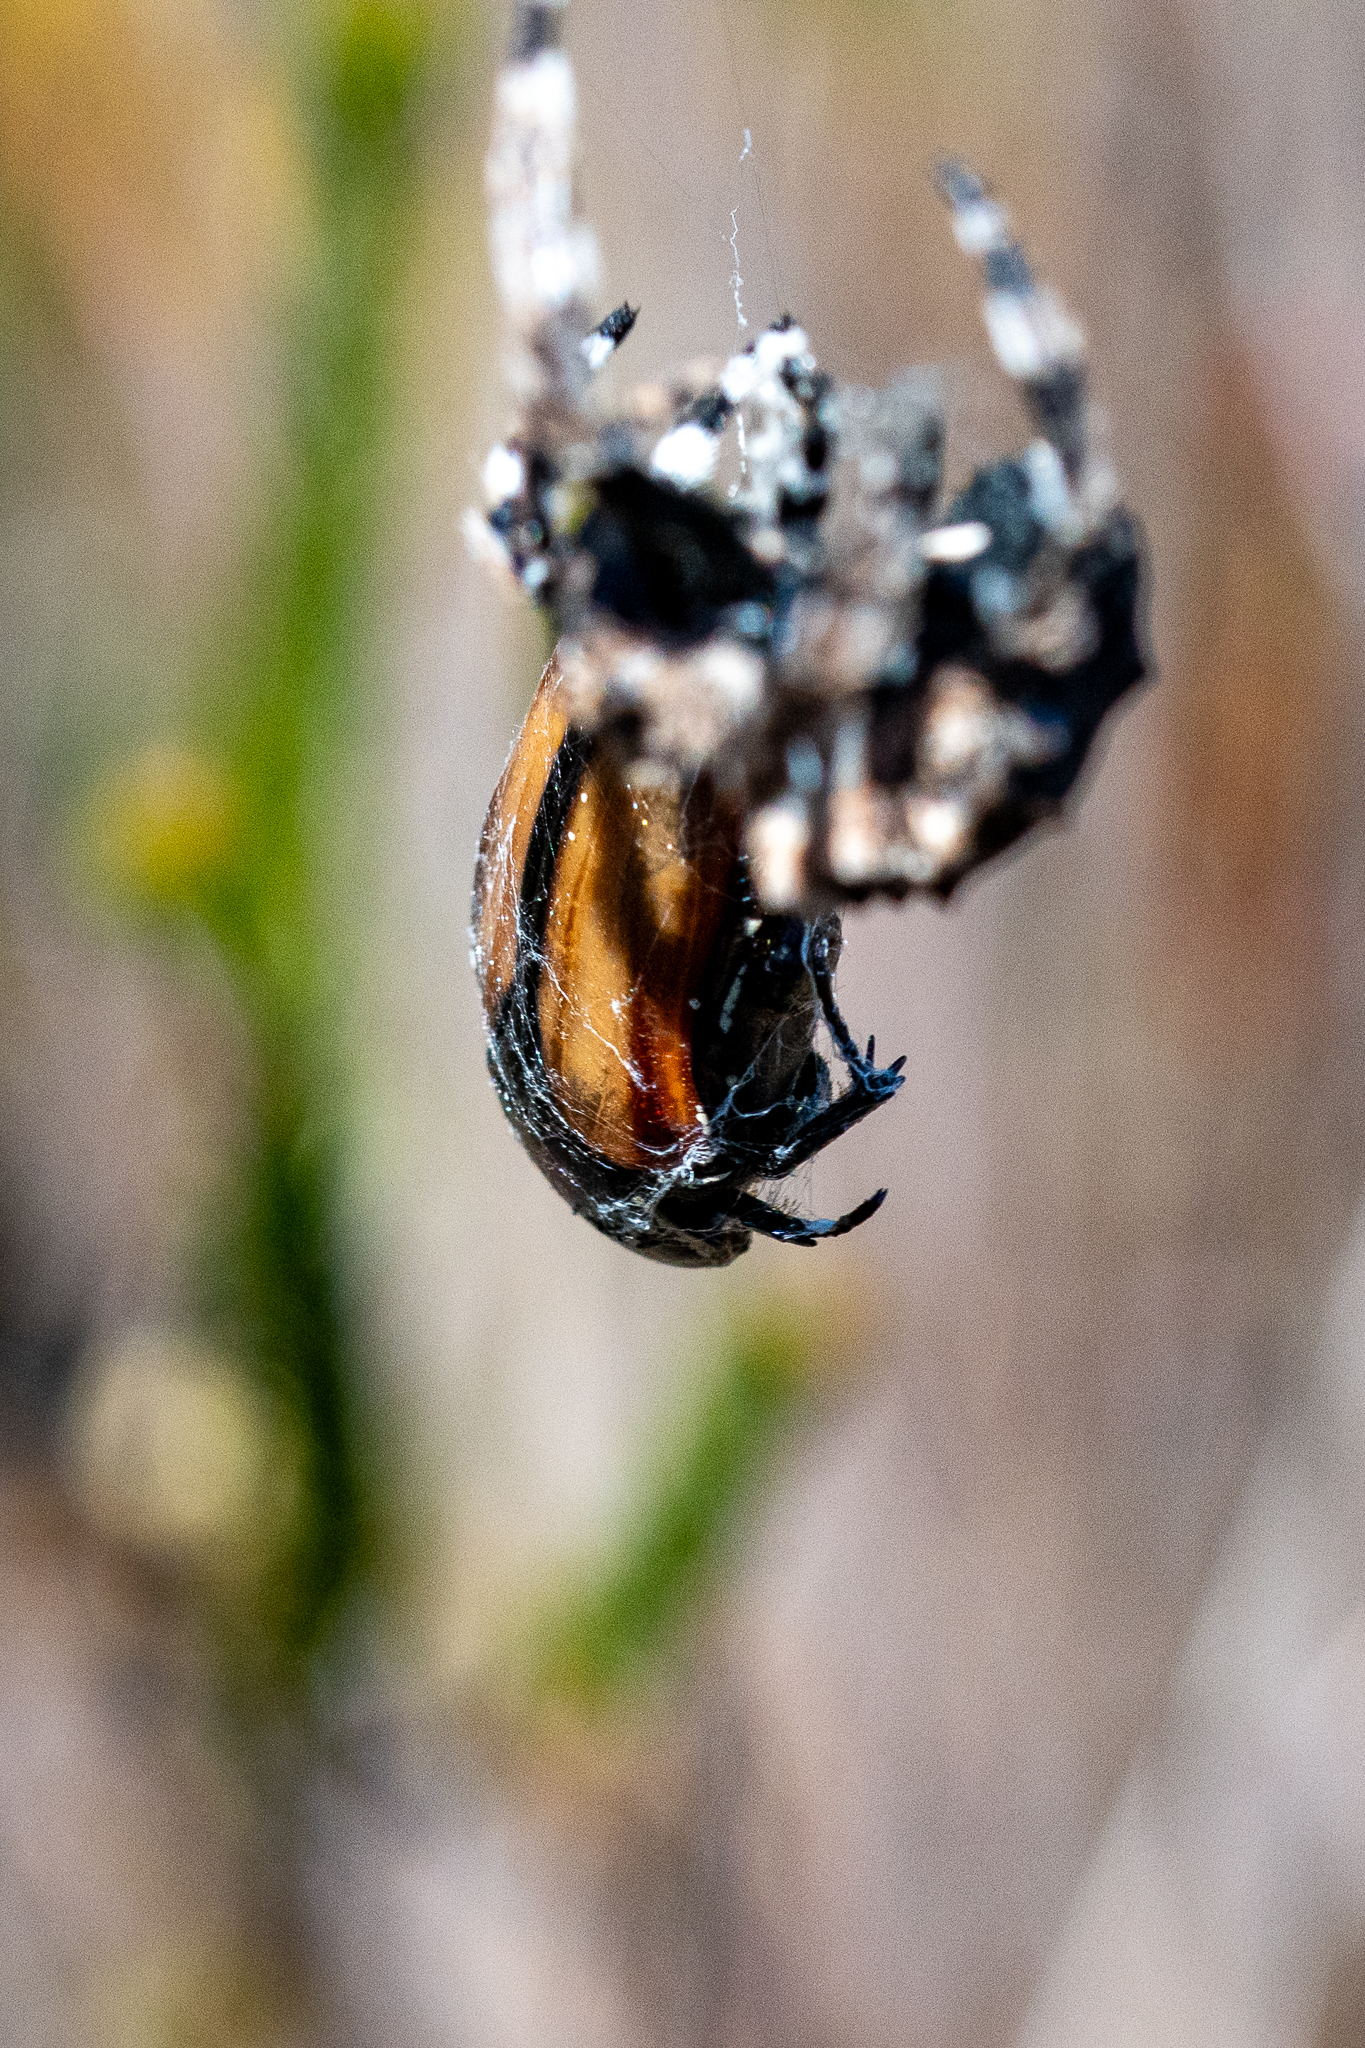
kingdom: Animalia
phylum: Arthropoda
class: Insecta
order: Coleoptera
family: Scarabaeidae
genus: Trichostetha
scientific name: Trichostetha capensis
